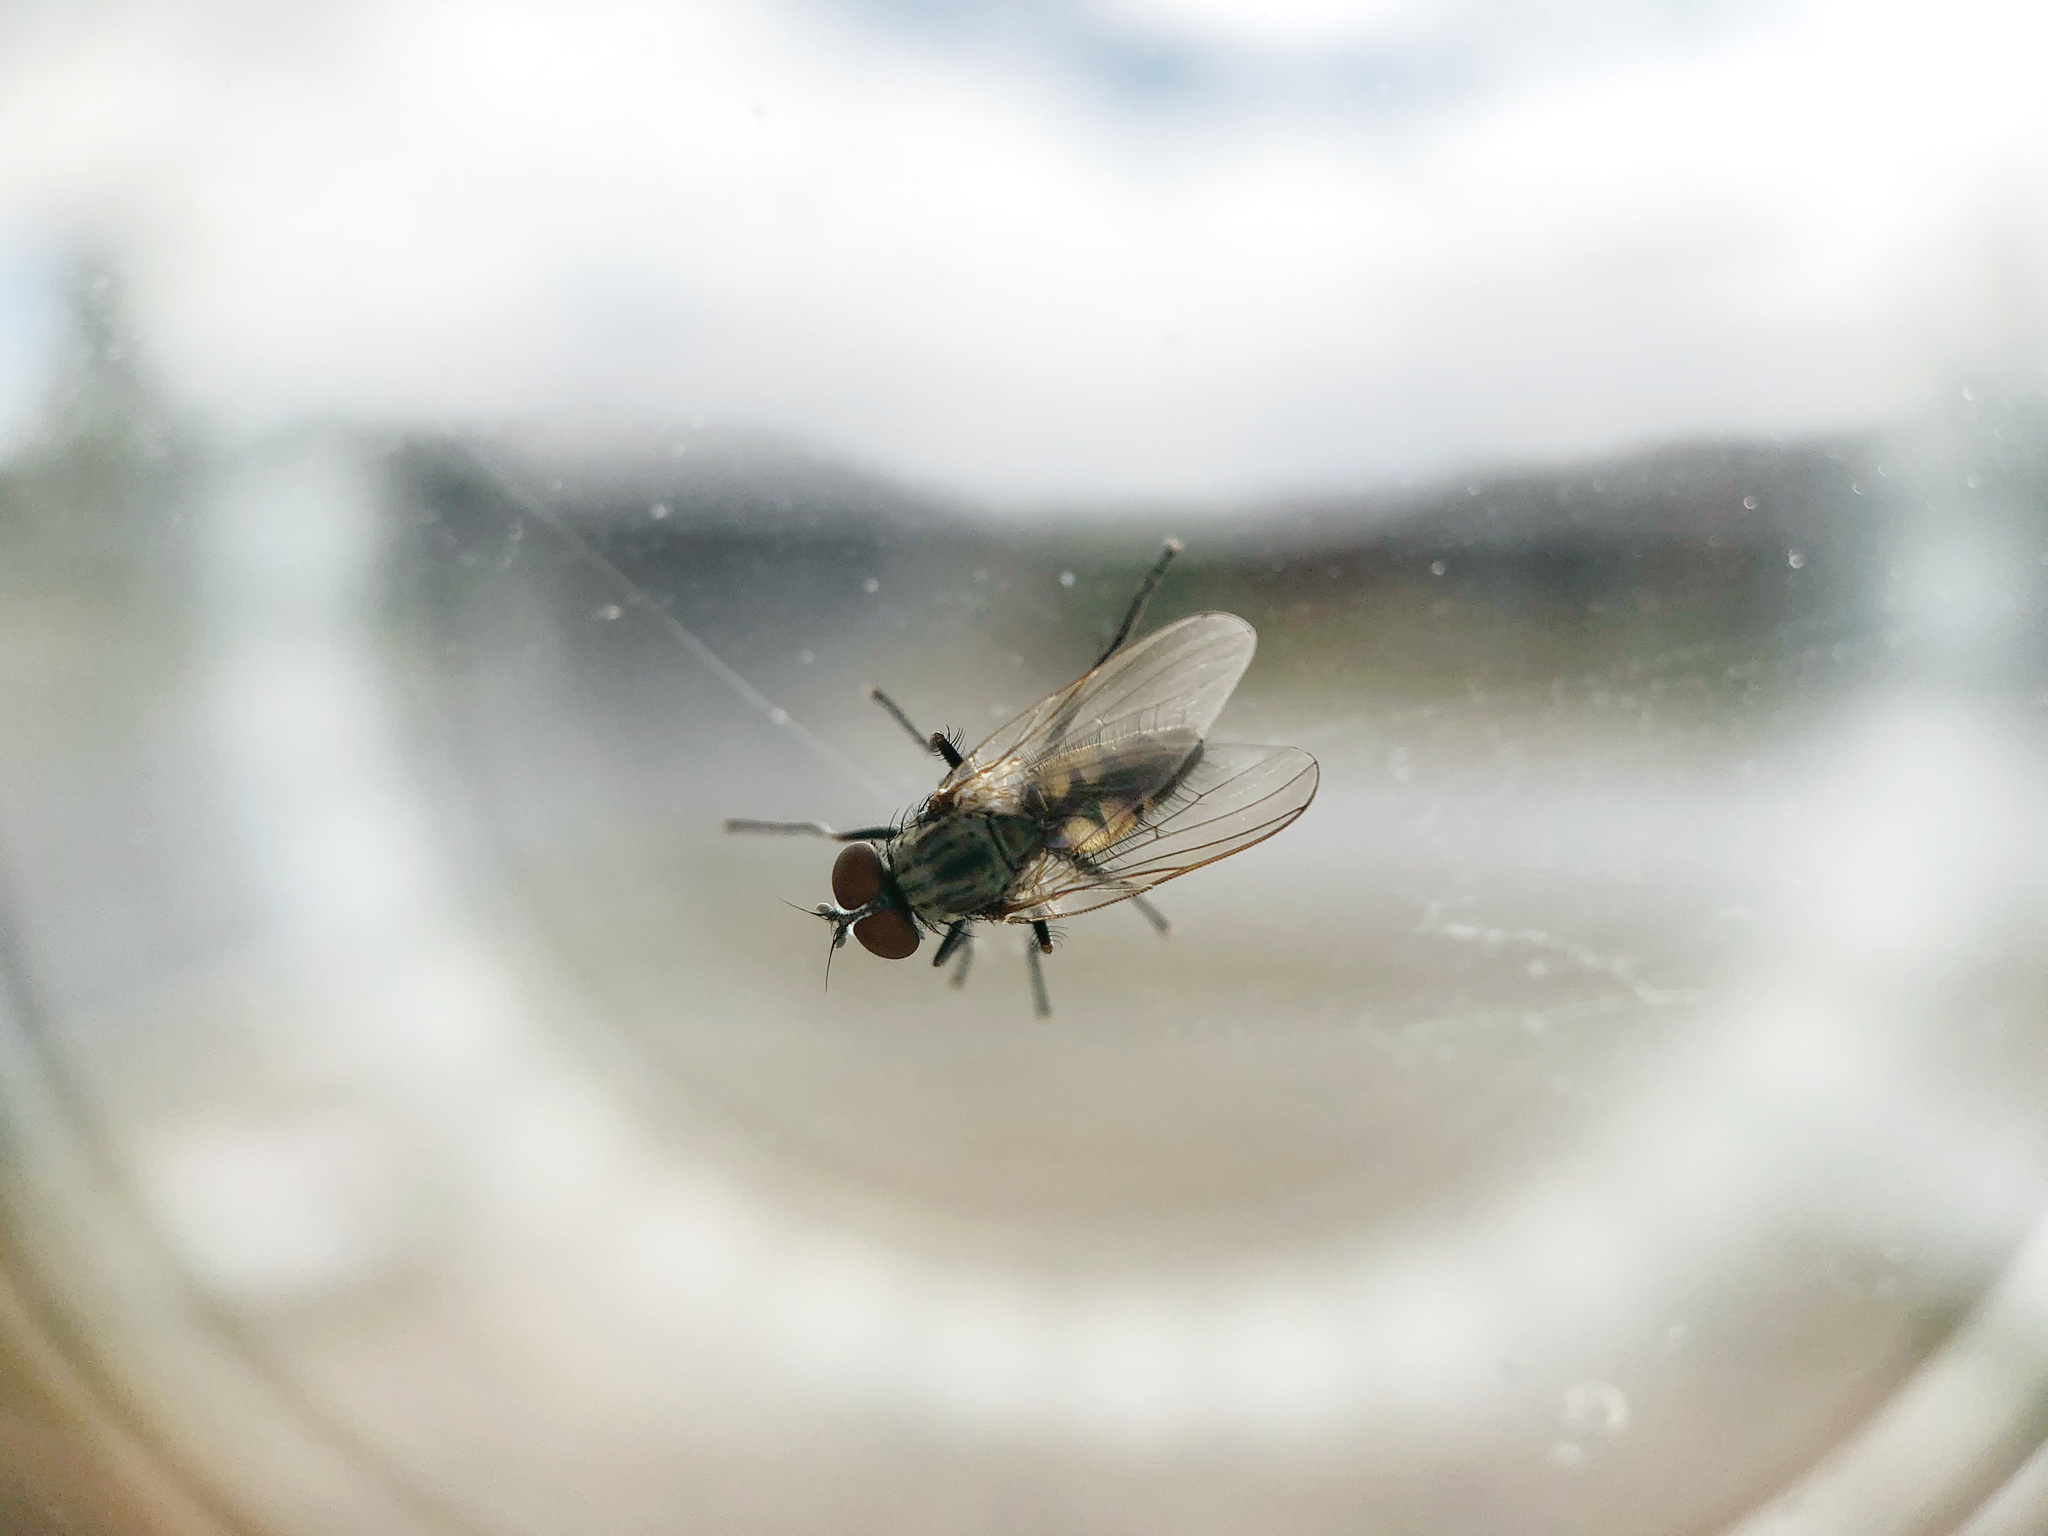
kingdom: Animalia
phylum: Arthropoda
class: Insecta
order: Diptera
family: Fanniidae
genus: Fannia
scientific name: Fannia canicularis
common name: Little house fly
